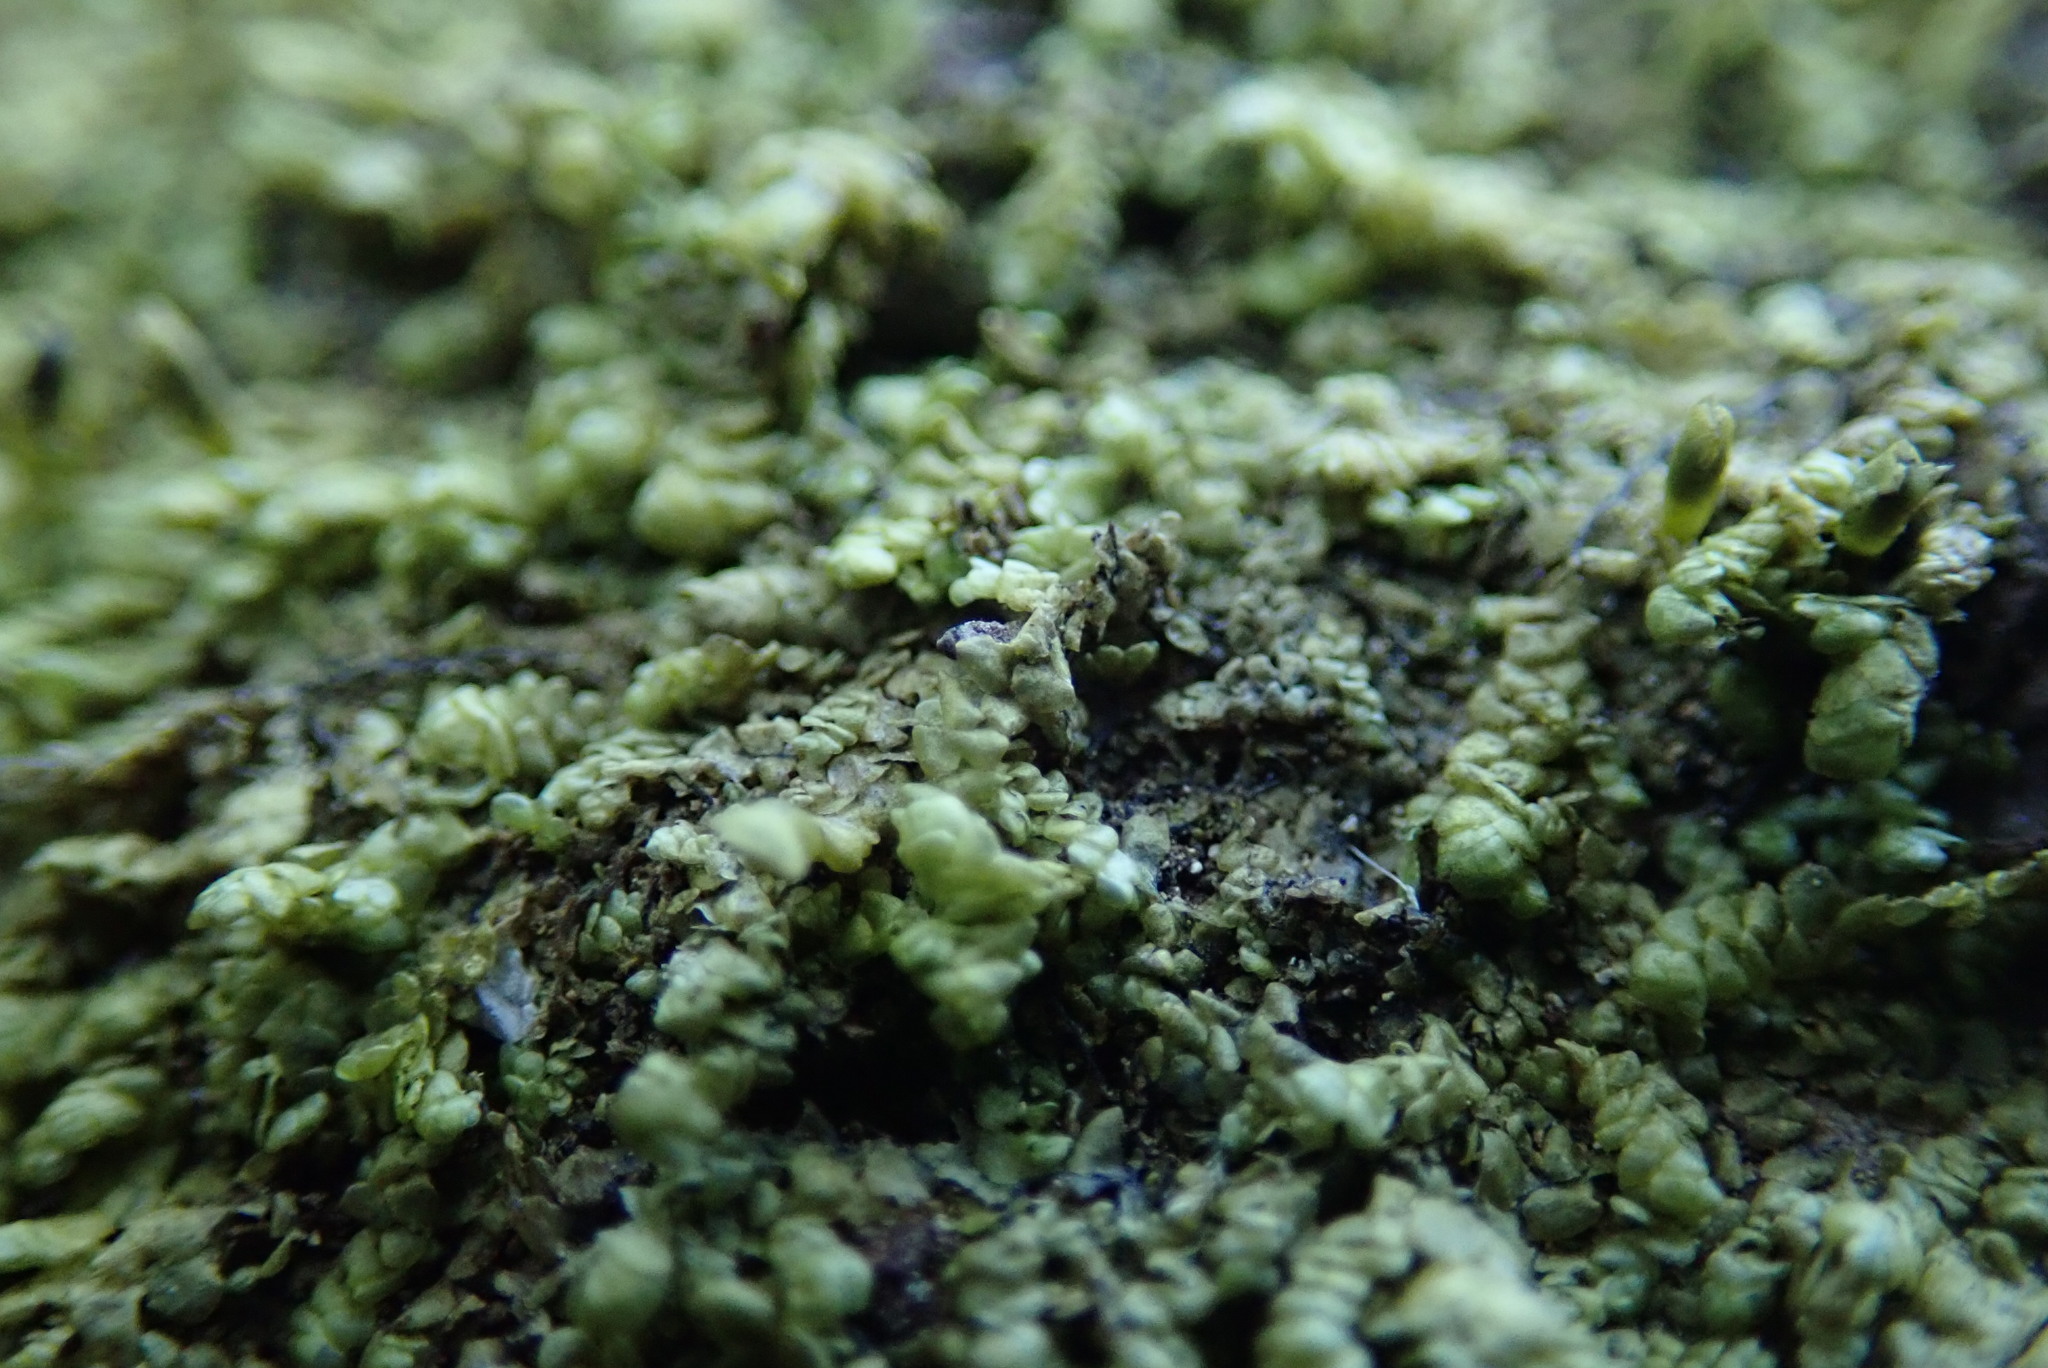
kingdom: Plantae
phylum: Marchantiophyta
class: Jungermanniopsida
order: Porellales
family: Radulaceae
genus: Radula
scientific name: Radula complanata
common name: Flat-leaved scalewort
